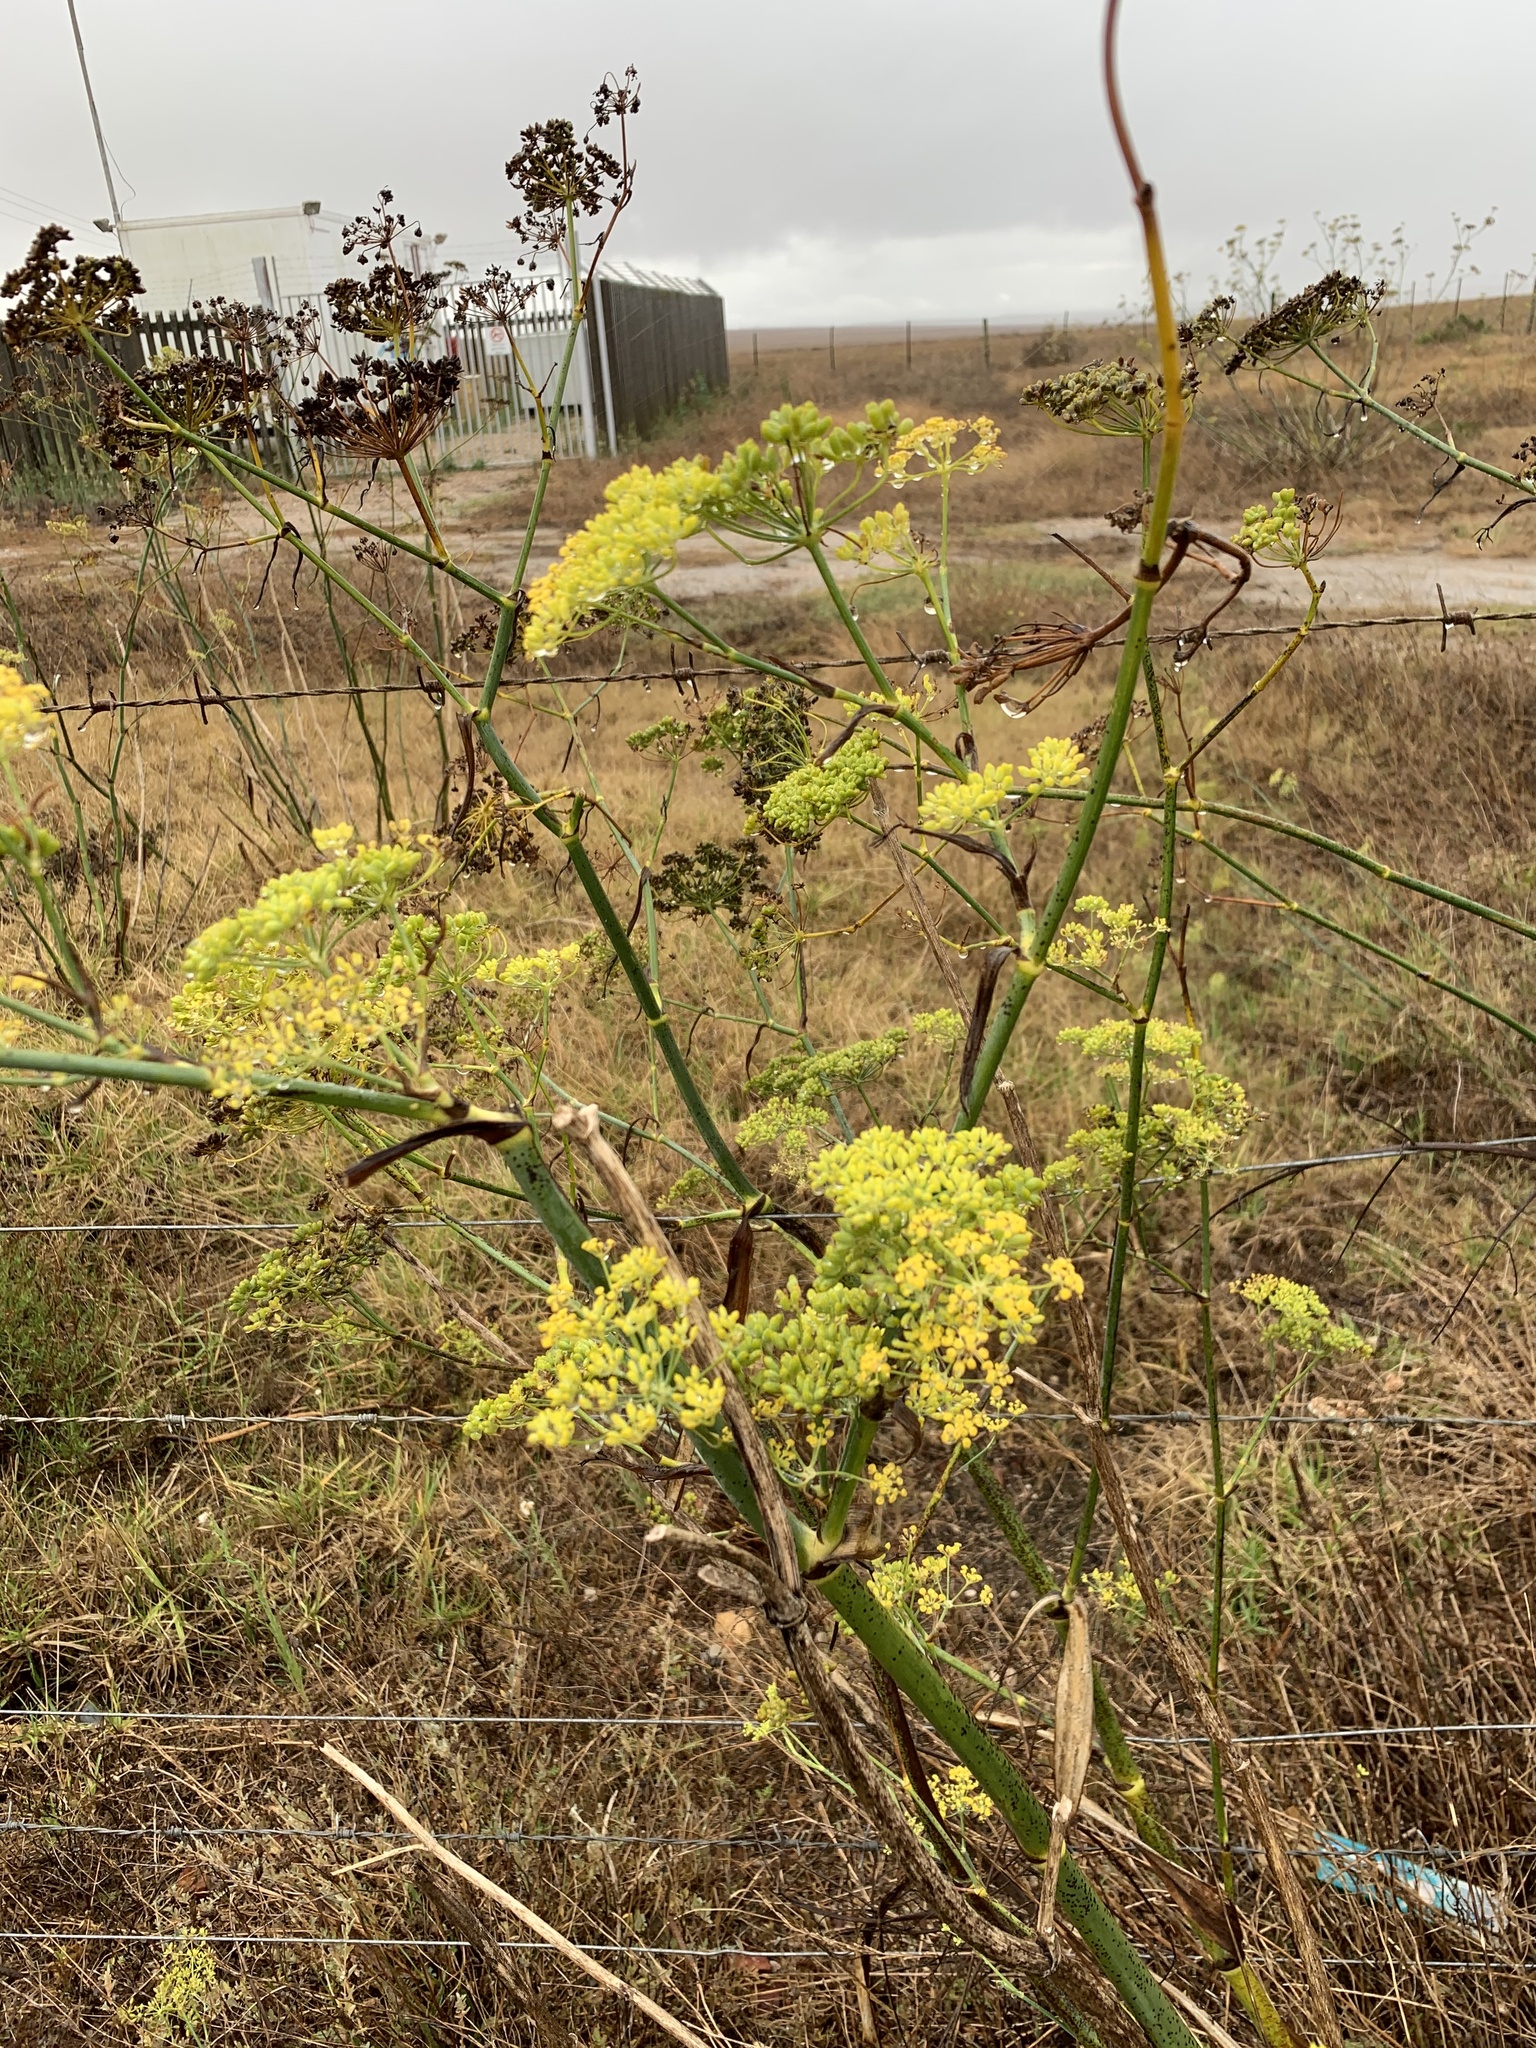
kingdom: Plantae
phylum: Tracheophyta
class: Magnoliopsida
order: Apiales
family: Apiaceae
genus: Foeniculum
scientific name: Foeniculum vulgare
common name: Fennel
